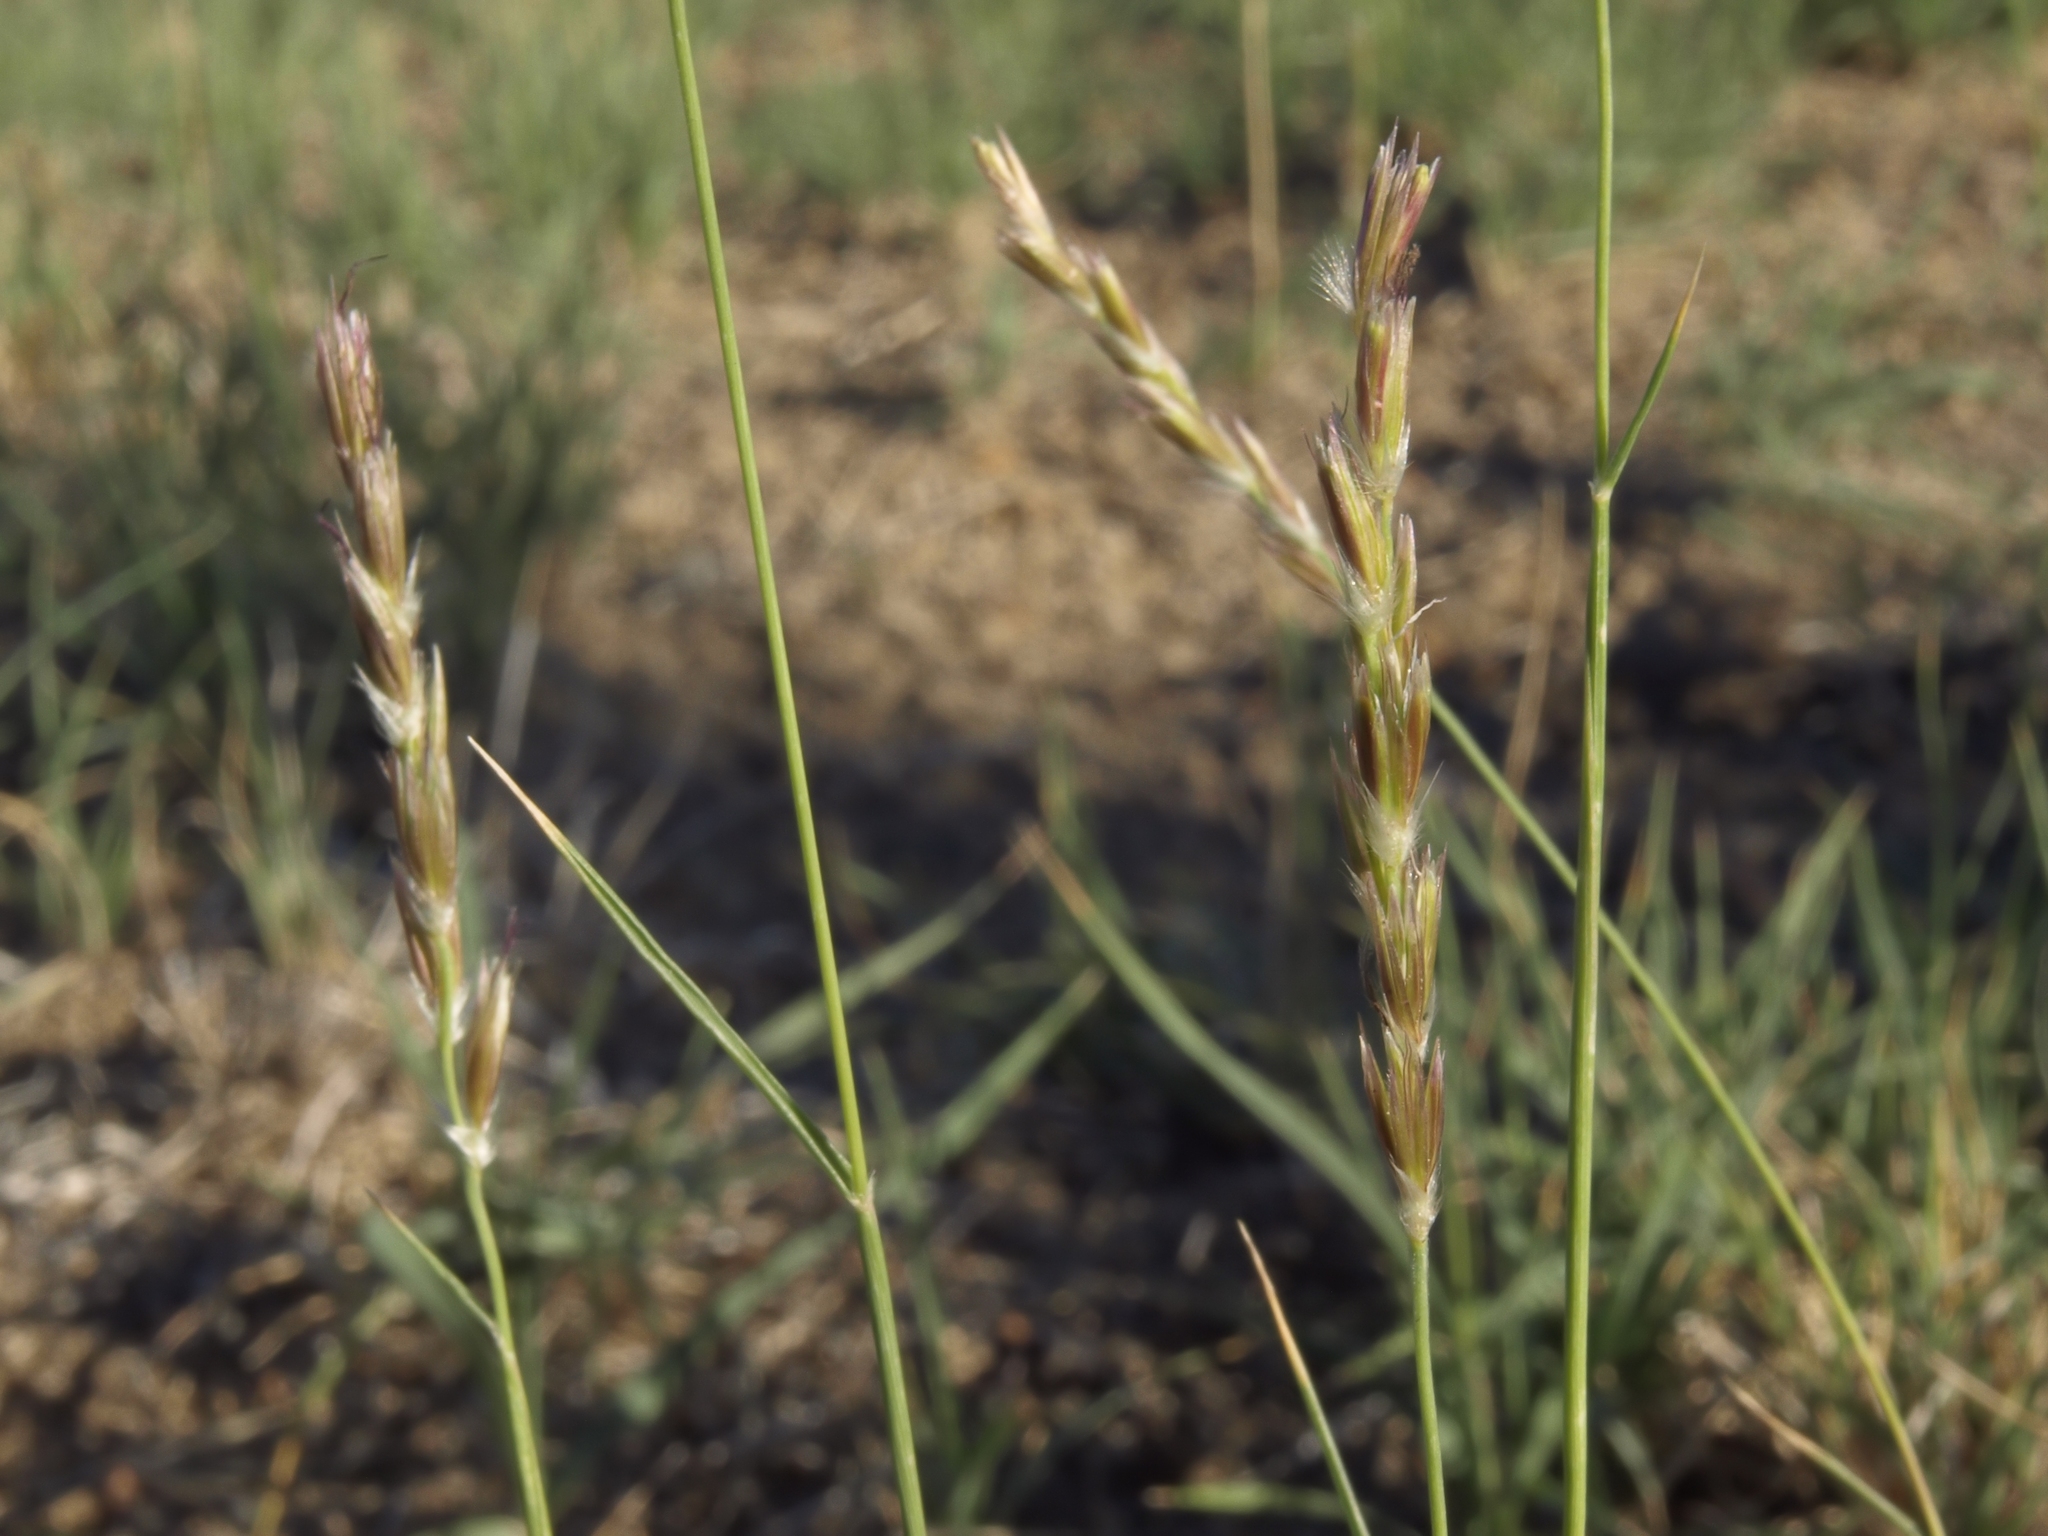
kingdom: Plantae
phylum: Tracheophyta
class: Liliopsida
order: Poales
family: Poaceae
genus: Hilaria
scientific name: Hilaria jamesii
